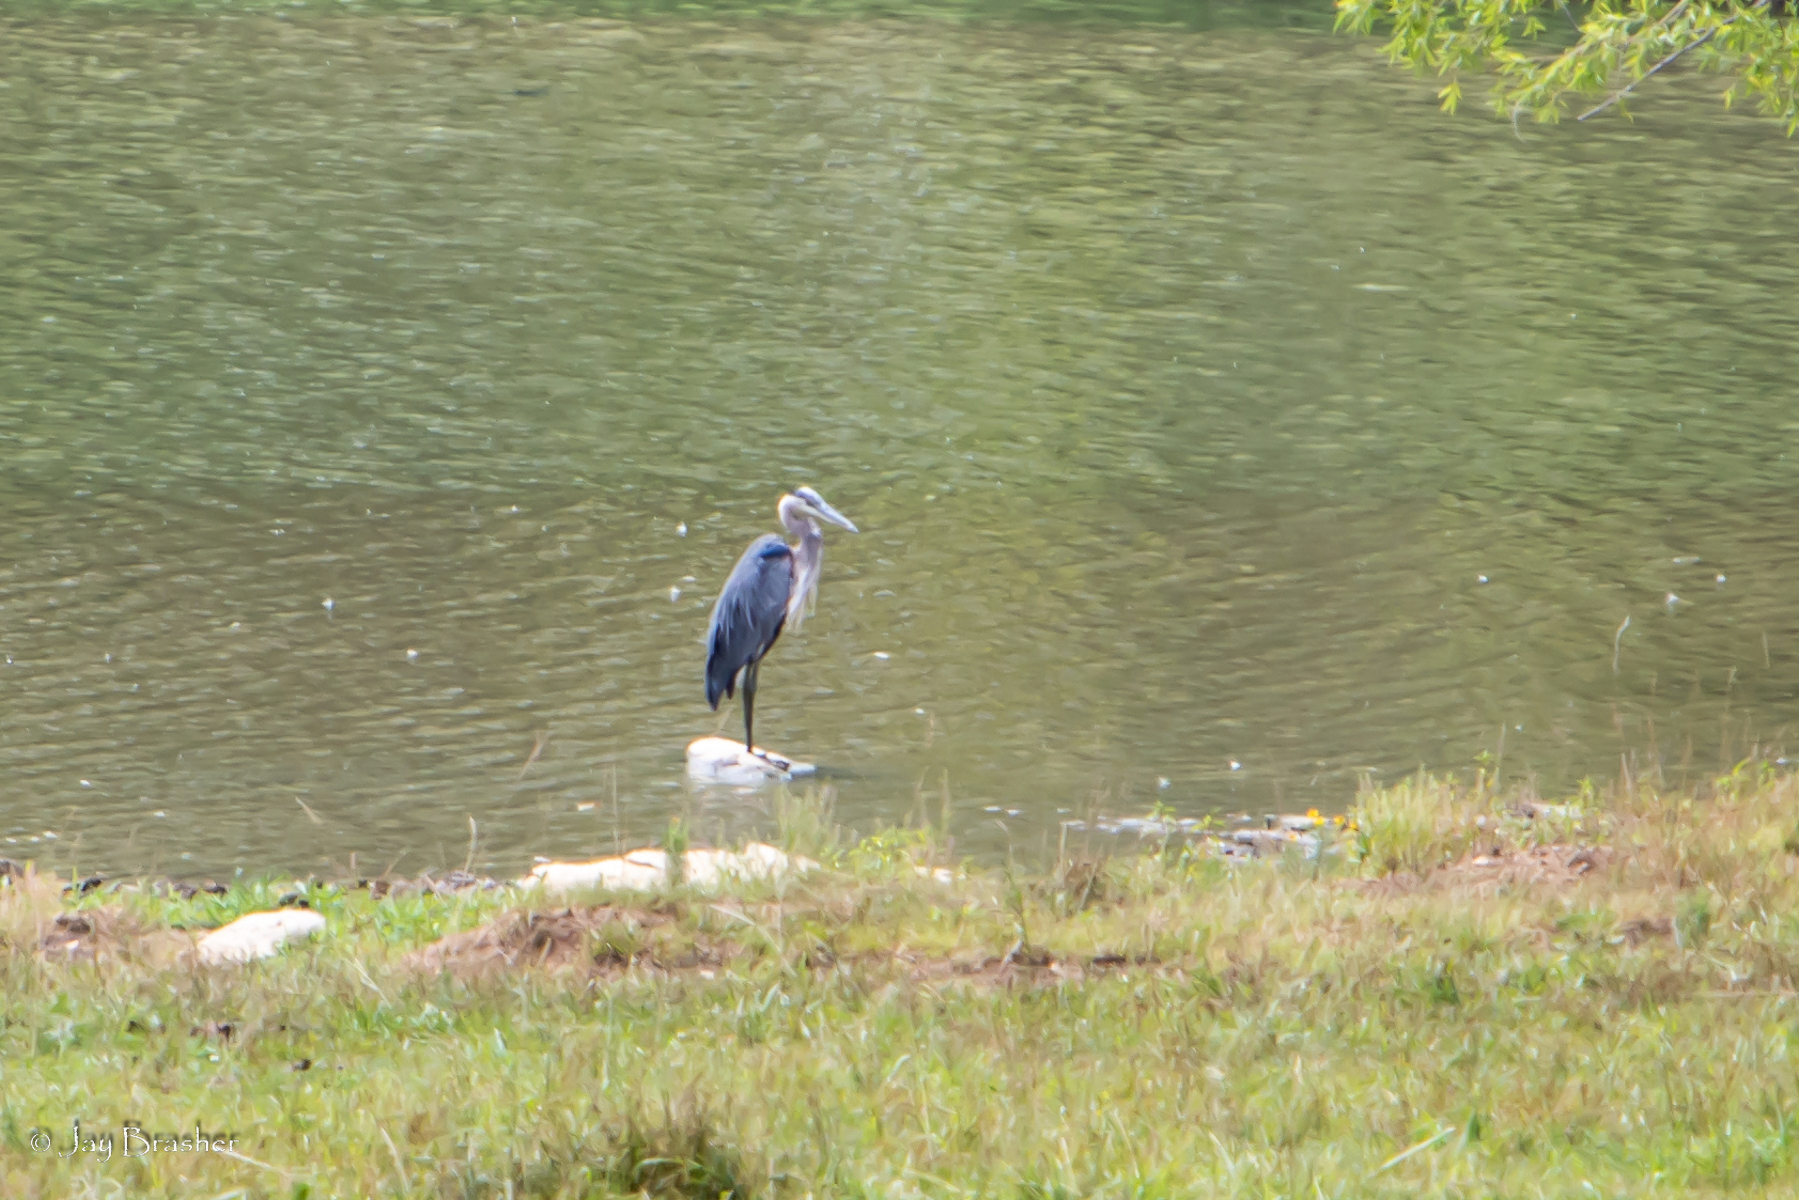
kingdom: Animalia
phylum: Chordata
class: Aves
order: Pelecaniformes
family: Ardeidae
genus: Ardea
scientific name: Ardea herodias
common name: Great blue heron
